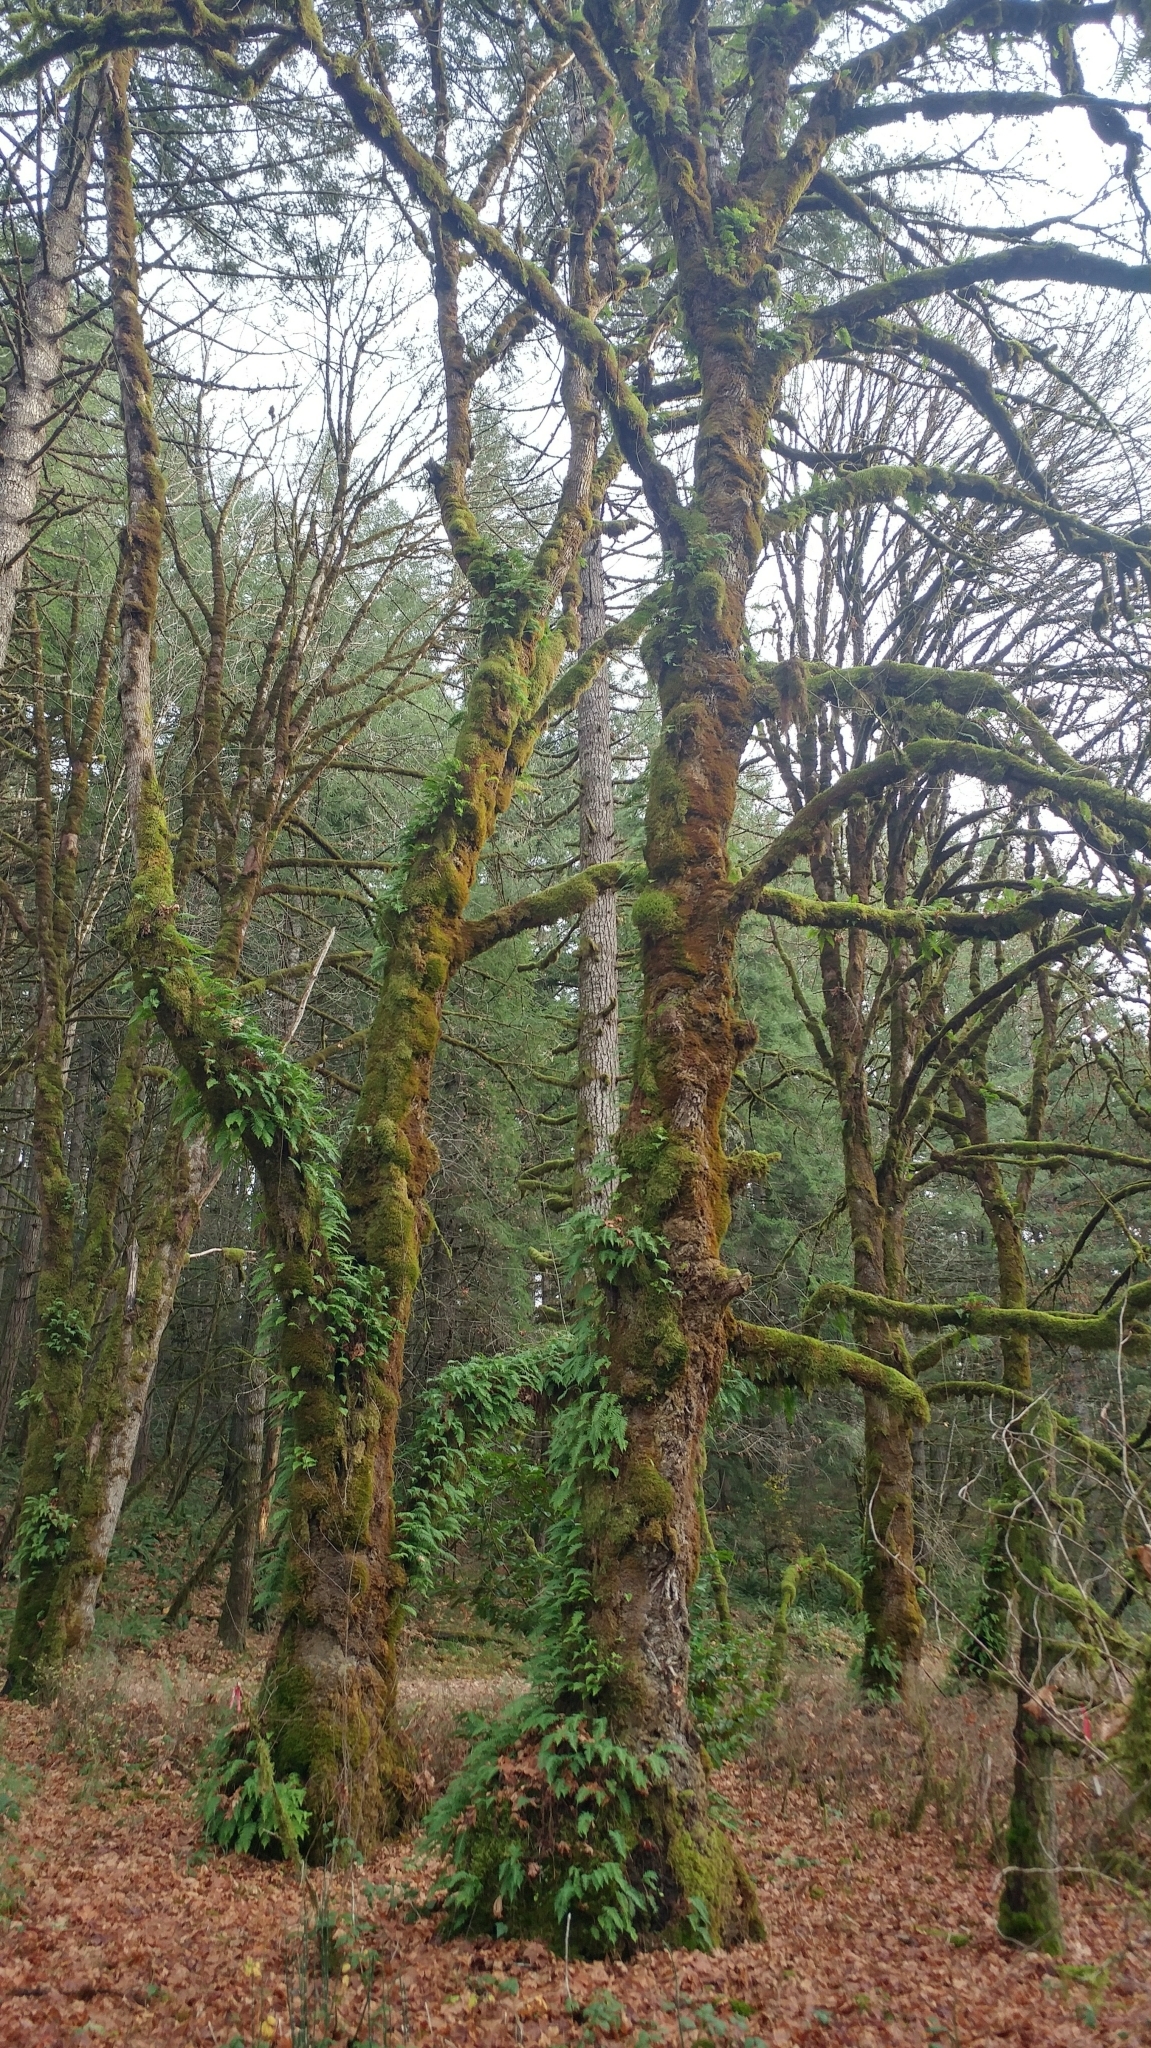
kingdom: Plantae
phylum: Tracheophyta
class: Magnoliopsida
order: Sapindales
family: Sapindaceae
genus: Acer
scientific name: Acer macrophyllum
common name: Oregon maple
